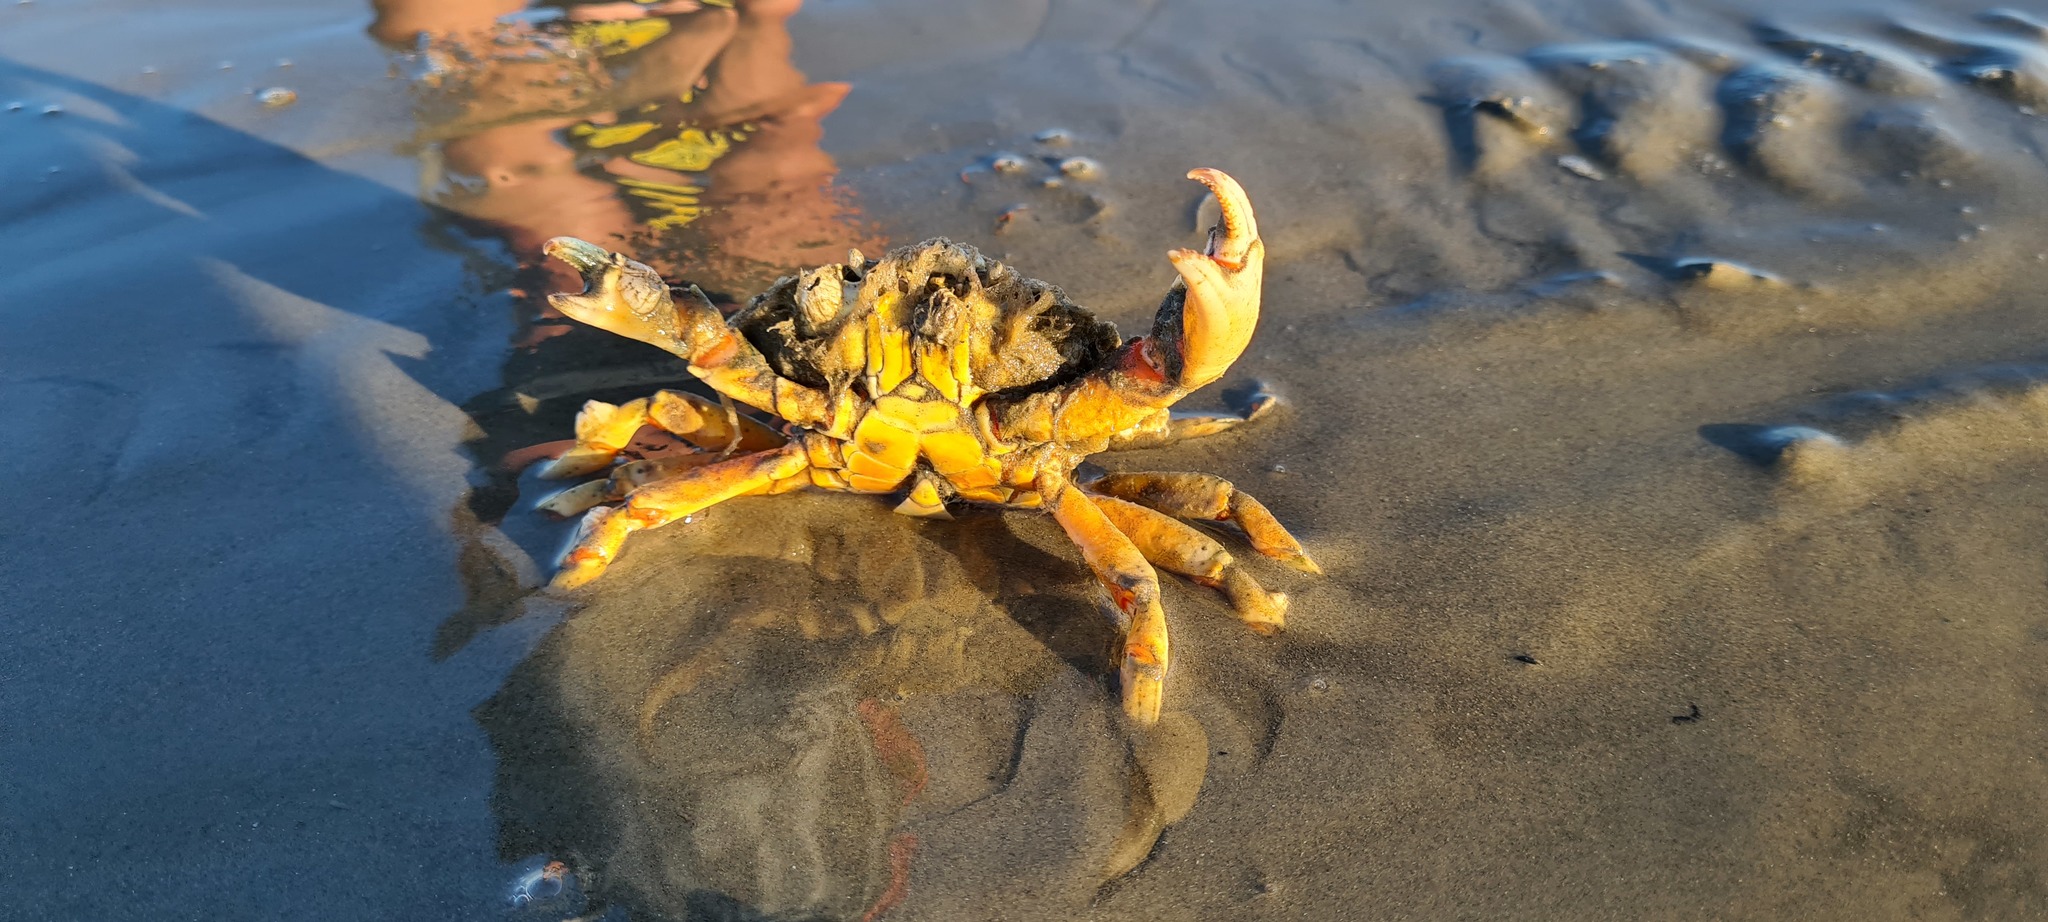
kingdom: Animalia
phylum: Arthropoda
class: Malacostraca
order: Decapoda
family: Carcinidae
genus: Carcinus
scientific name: Carcinus maenas
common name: European green crab
